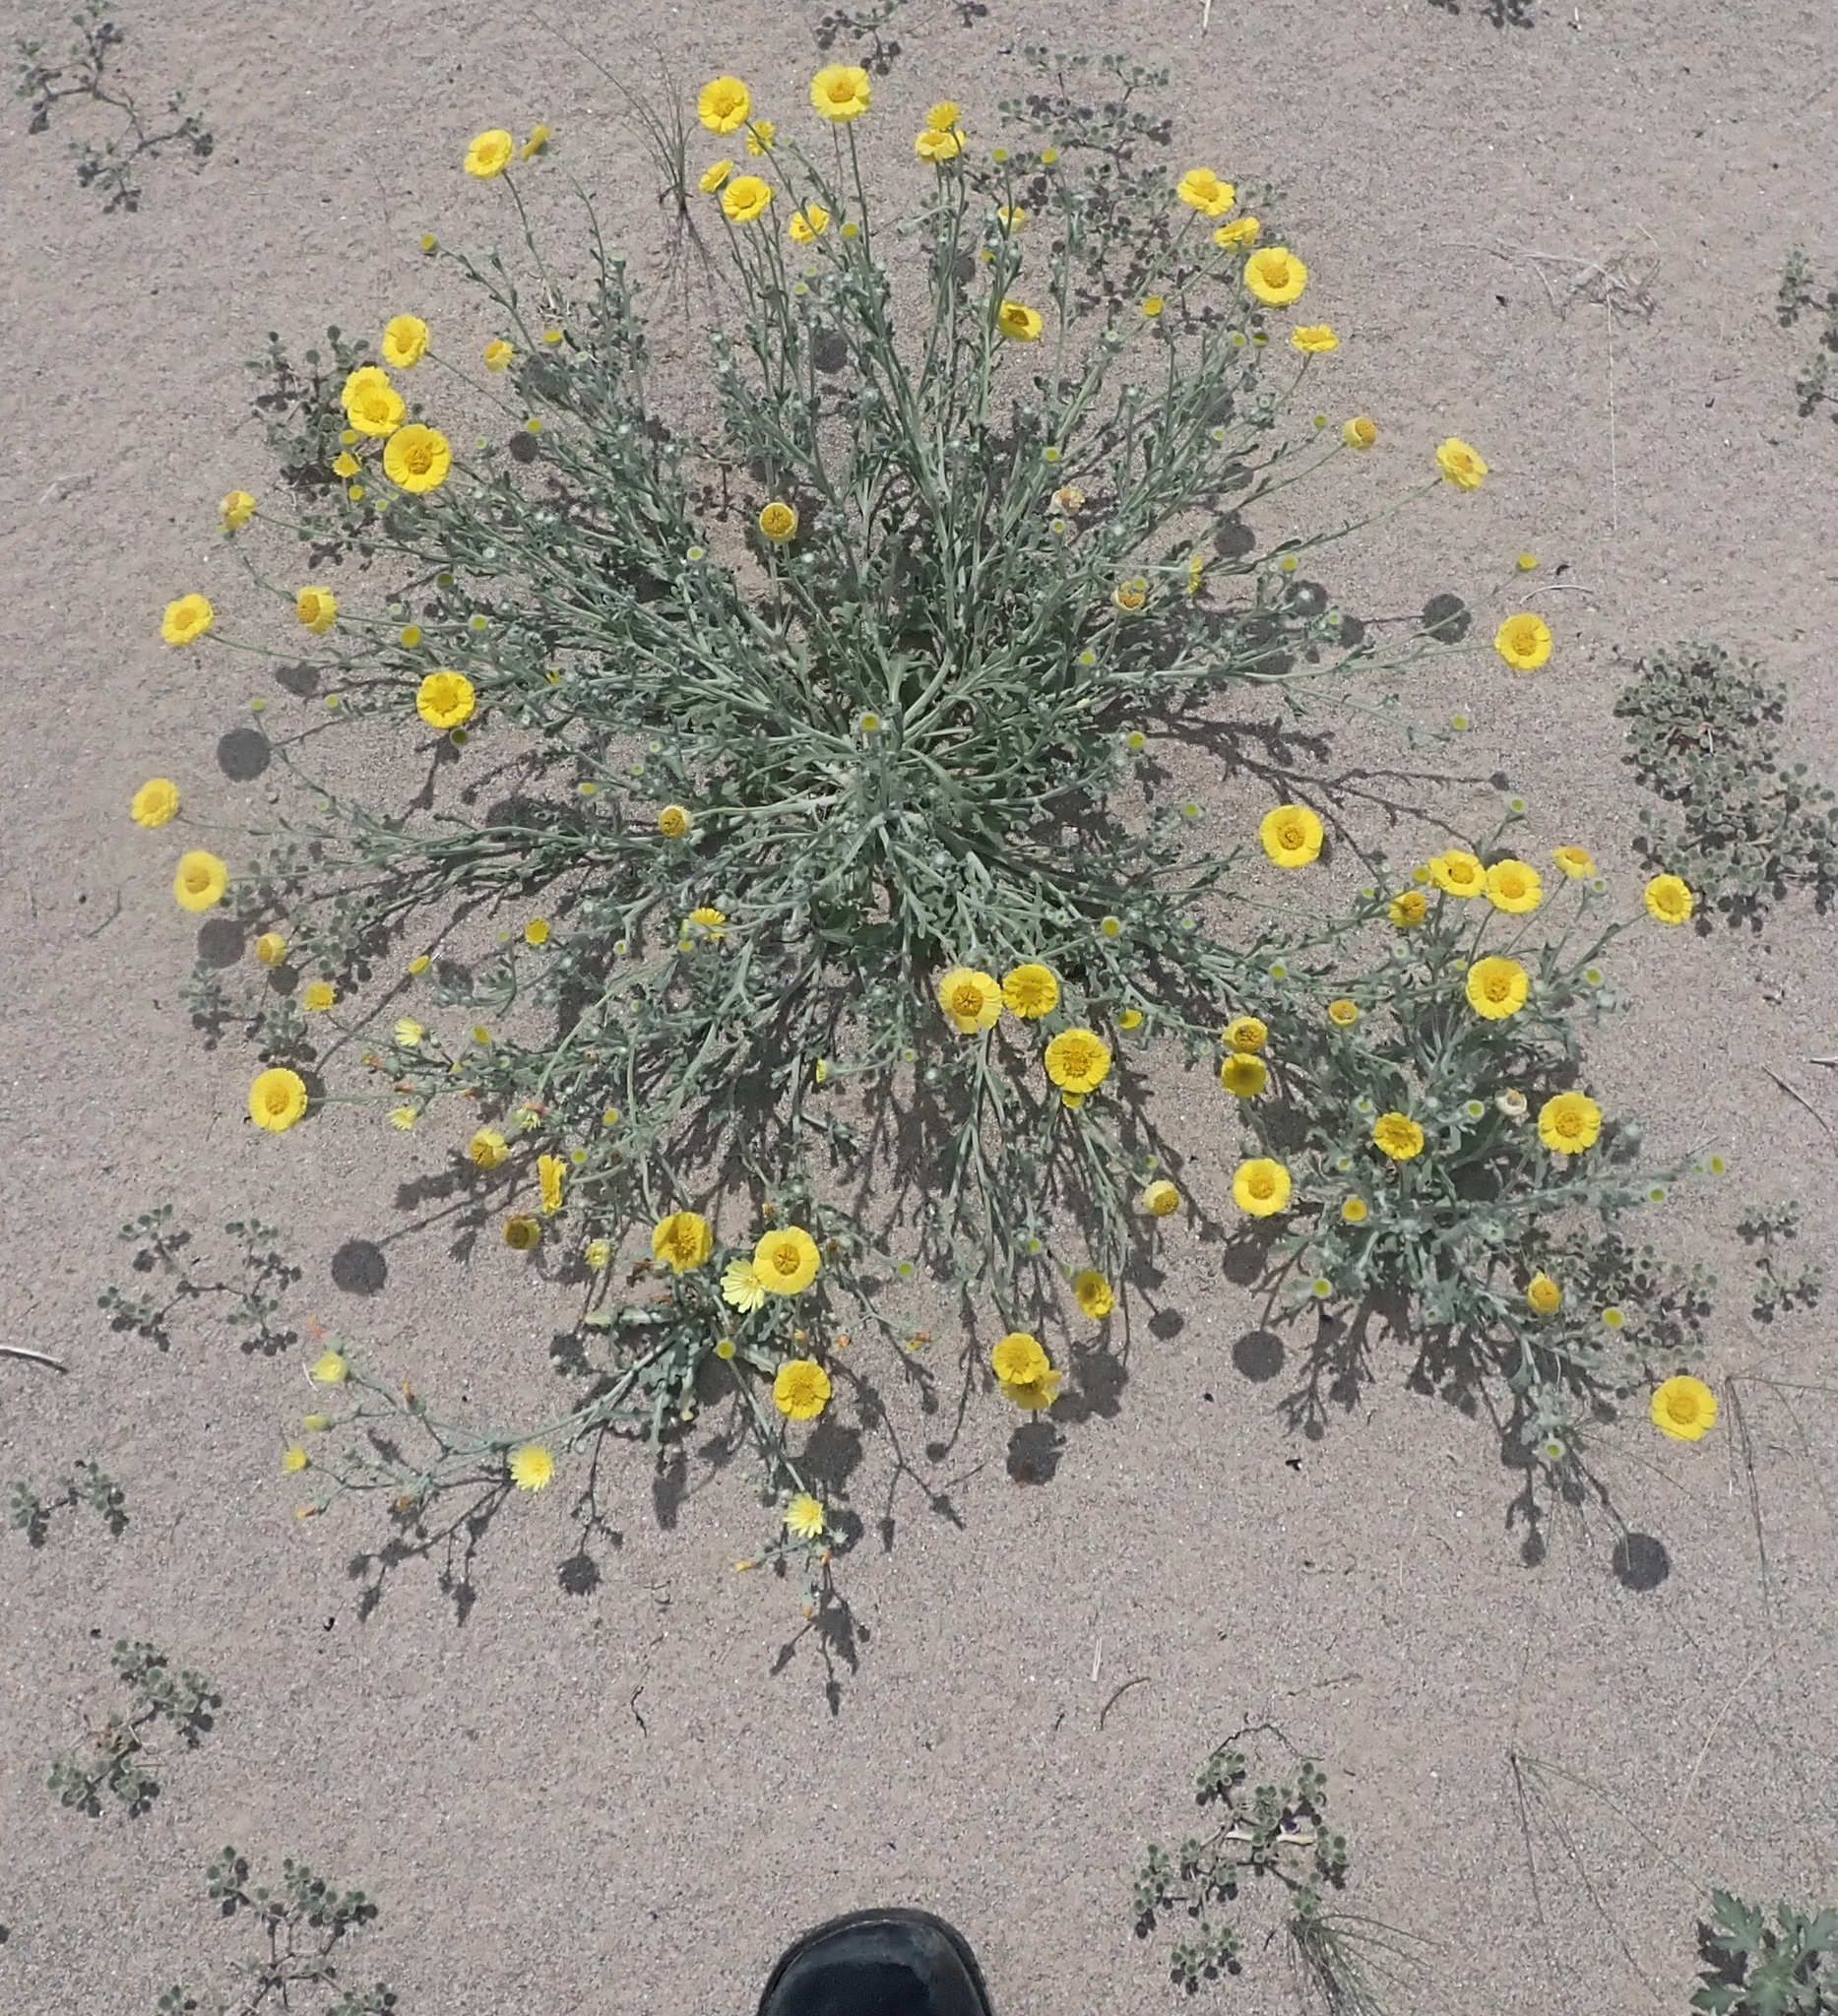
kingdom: Plantae
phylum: Tracheophyta
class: Magnoliopsida
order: Asterales
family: Asteraceae
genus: Baileya
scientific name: Baileya multiradiata
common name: Desert-marigold
